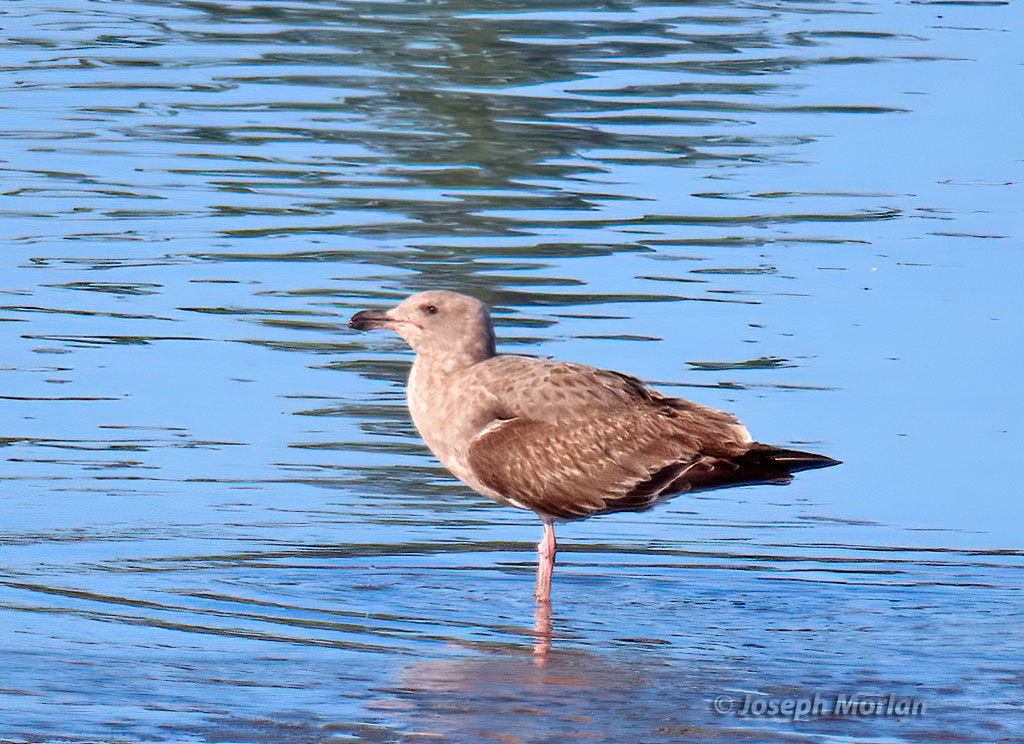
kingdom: Animalia
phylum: Chordata
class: Aves
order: Charadriiformes
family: Laridae
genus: Larus
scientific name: Larus occidentalis
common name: Western gull
